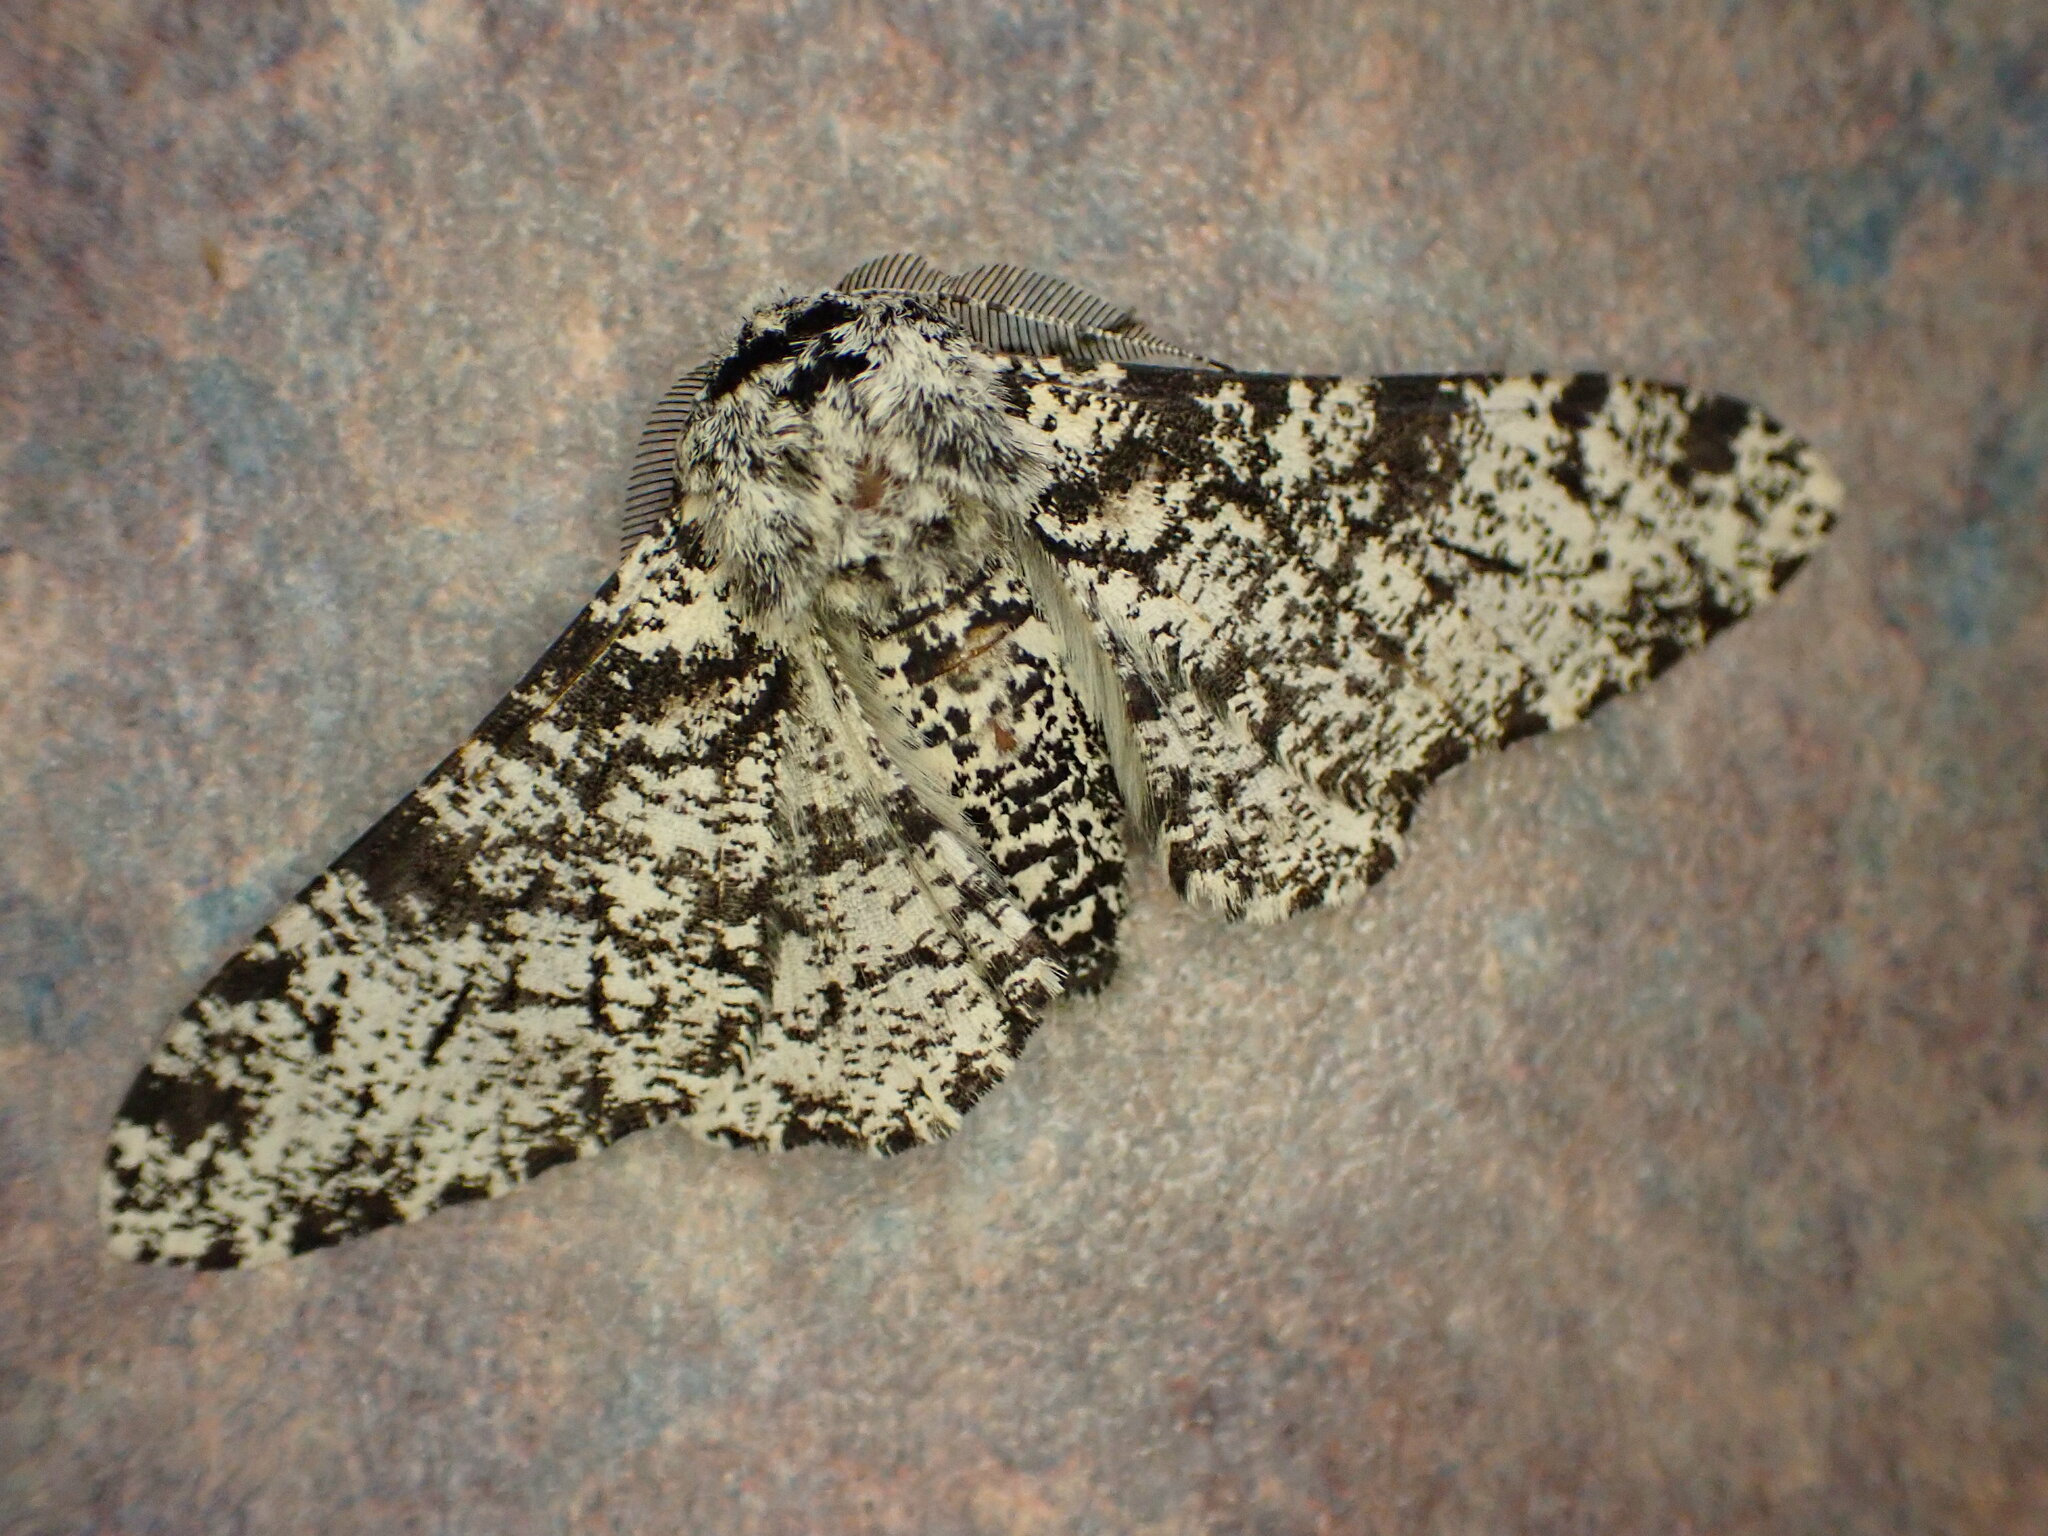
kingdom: Animalia
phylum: Arthropoda
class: Insecta
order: Lepidoptera
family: Geometridae
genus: Biston
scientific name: Biston betularia
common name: Peppered moth
